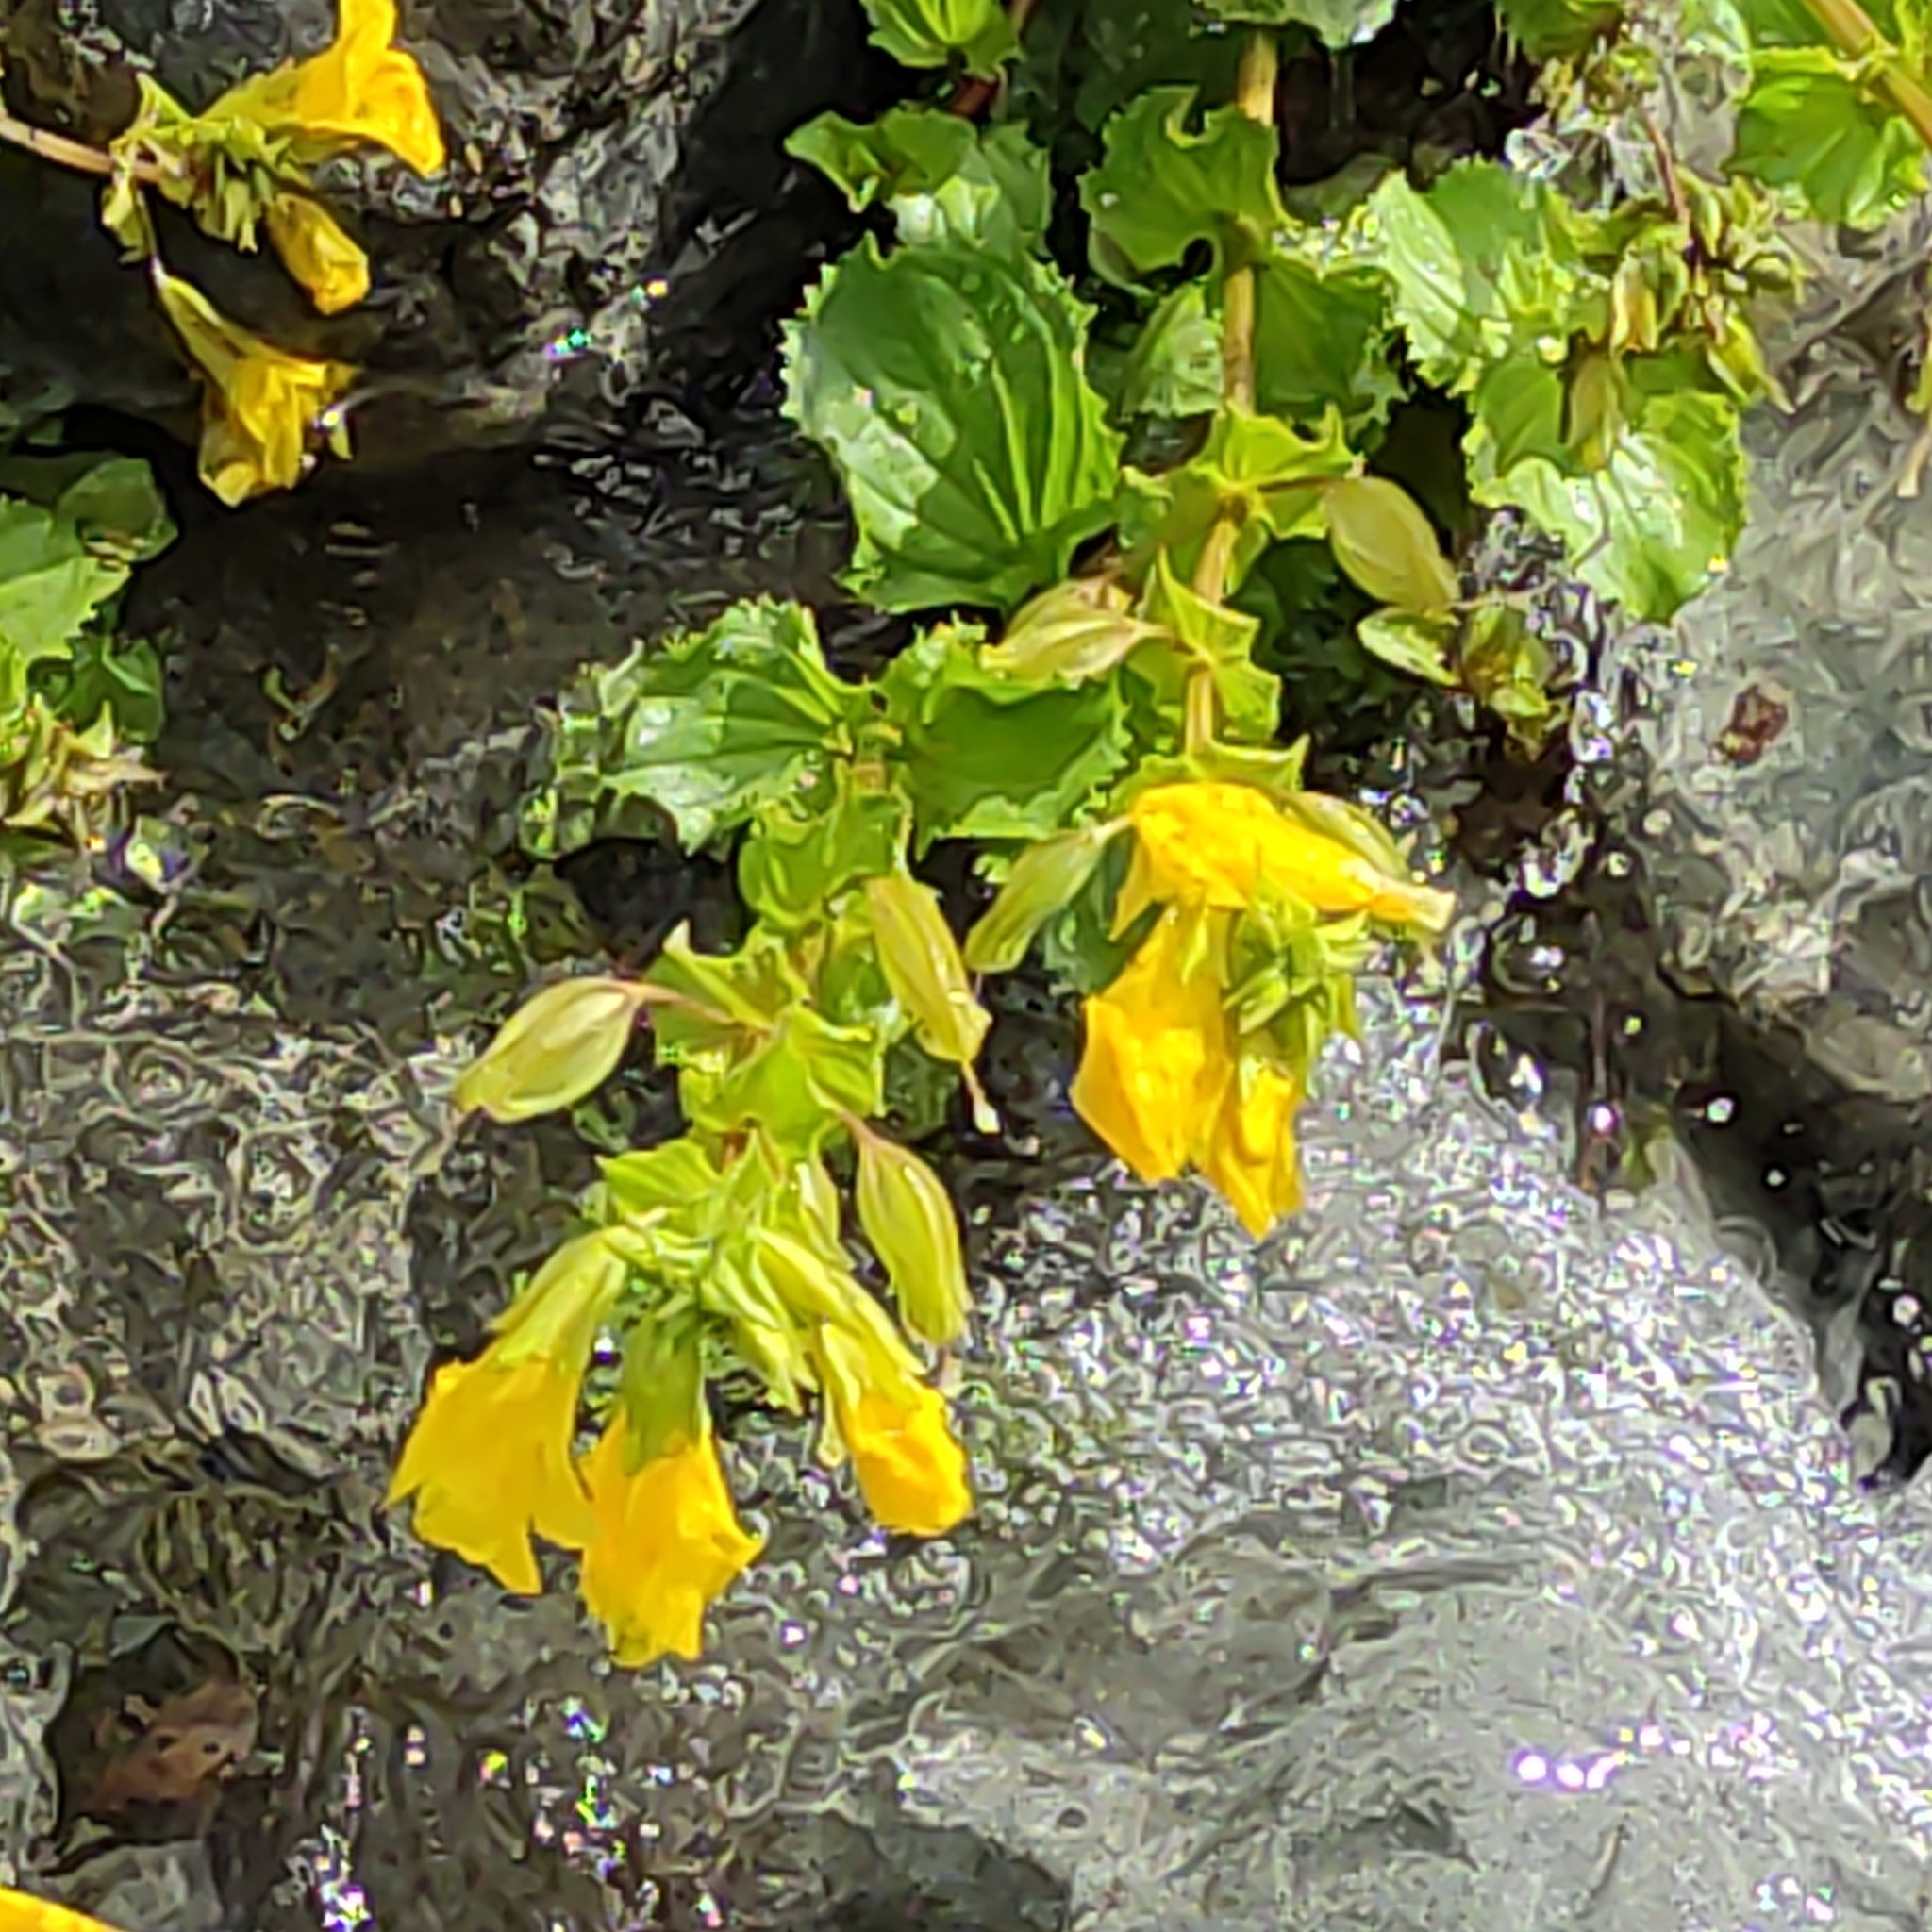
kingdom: Plantae
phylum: Tracheophyta
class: Magnoliopsida
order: Lamiales
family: Phrymaceae
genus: Erythranthe
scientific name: Erythranthe guttata
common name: Monkeyflower
